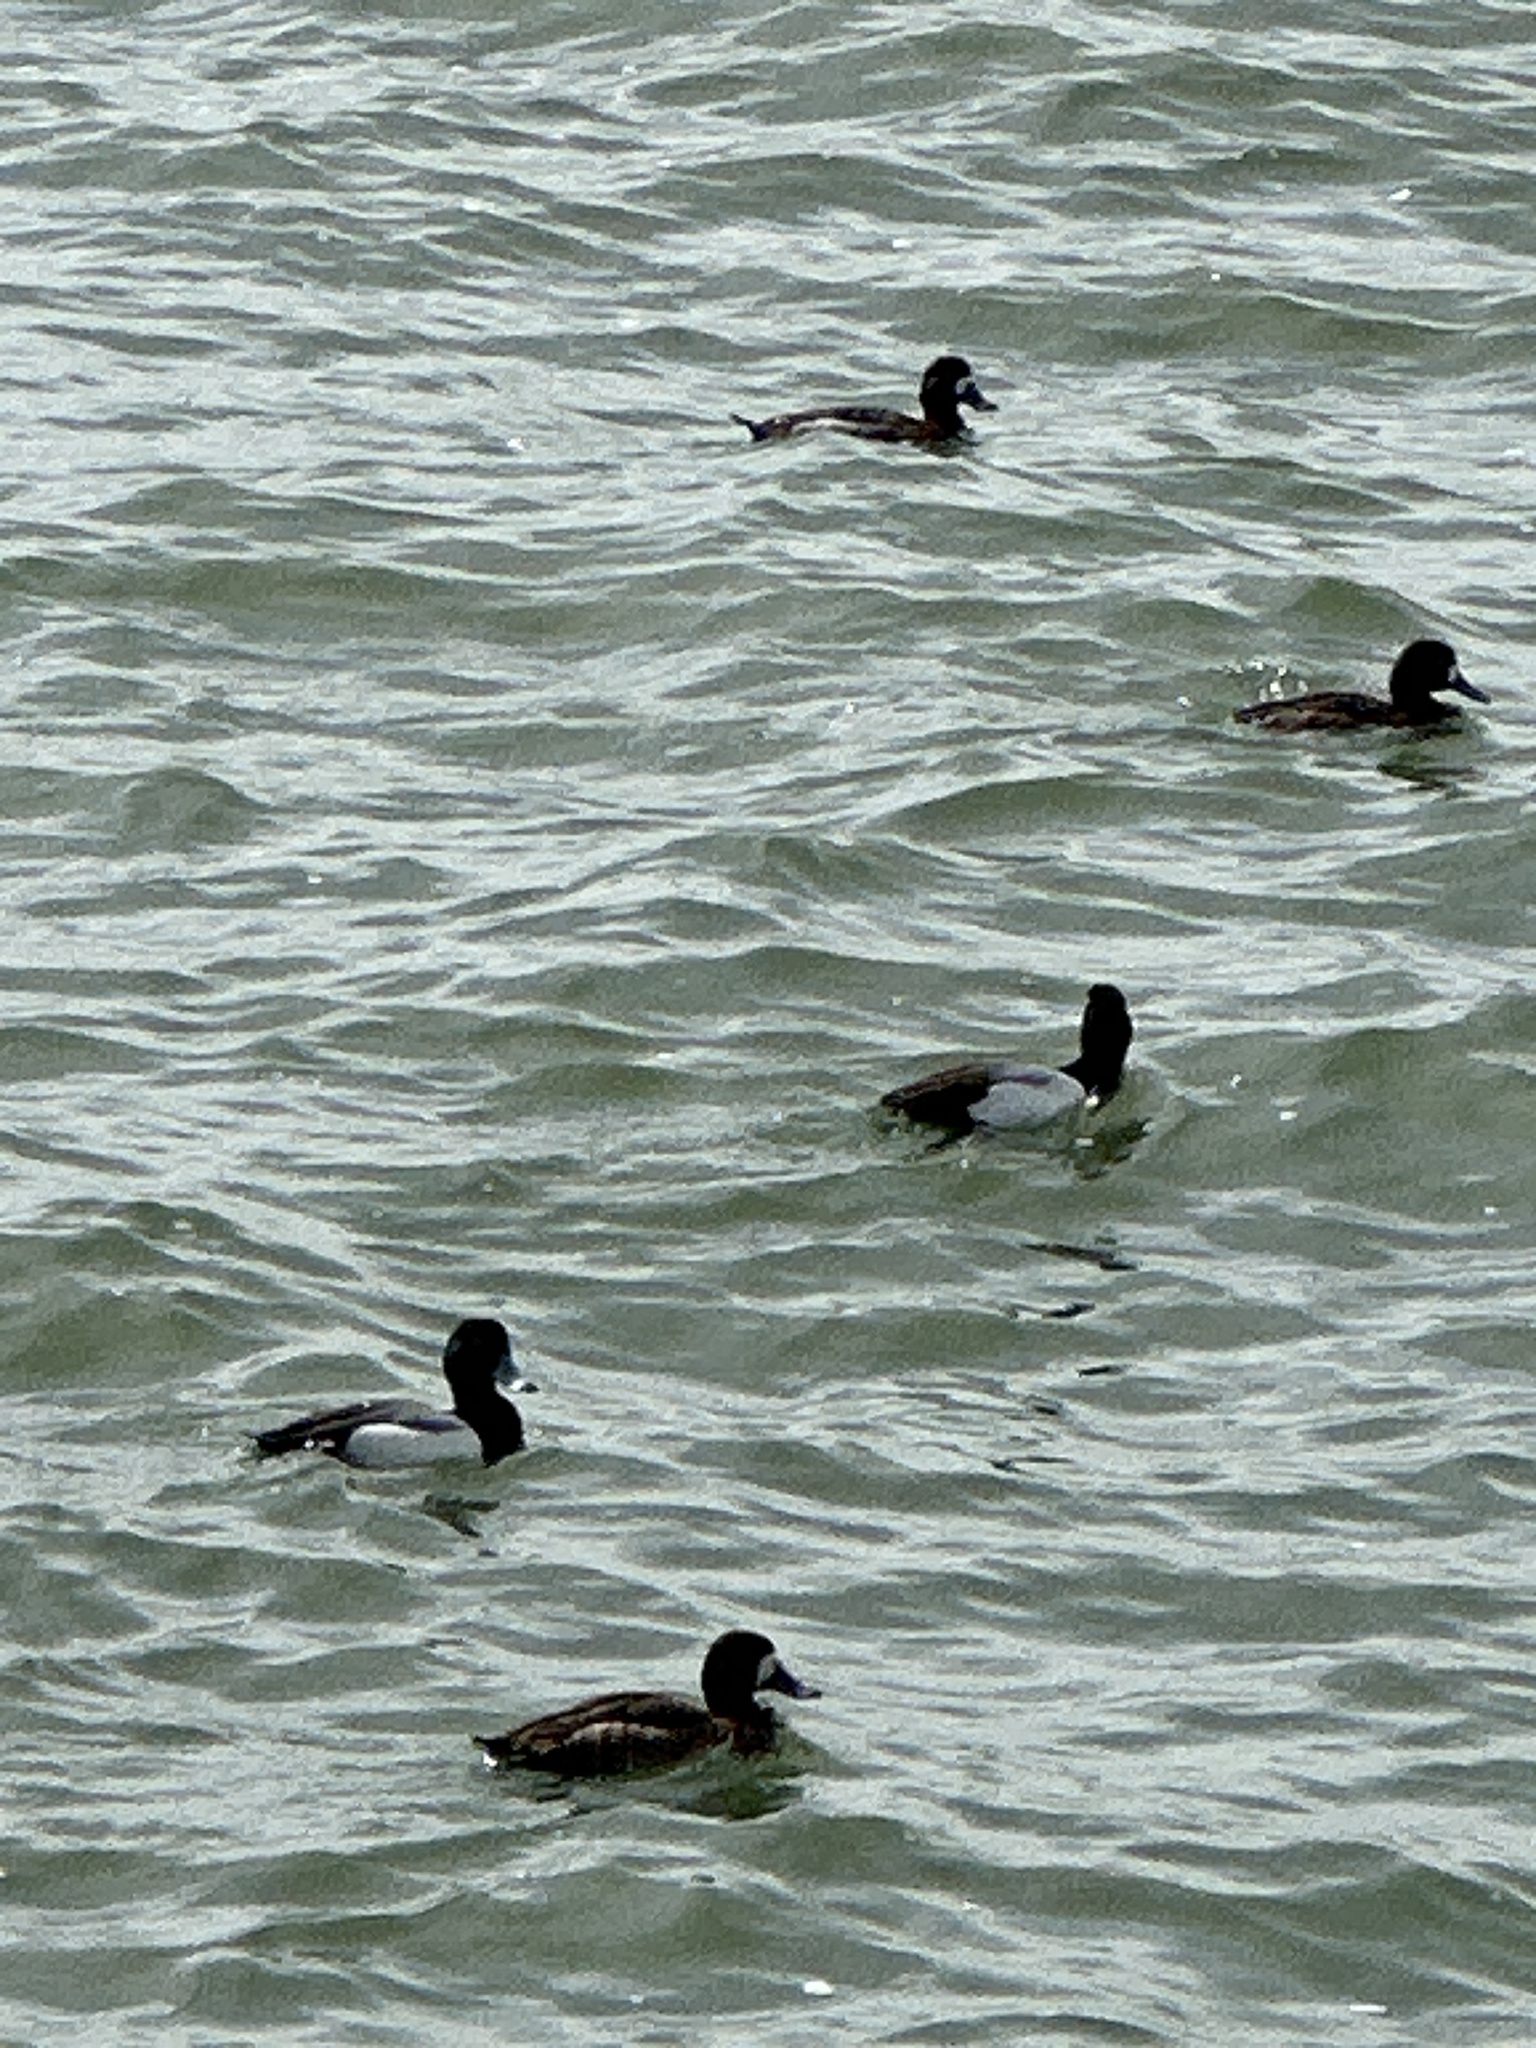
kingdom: Animalia
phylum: Chordata
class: Aves
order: Anseriformes
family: Anatidae
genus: Aythya
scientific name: Aythya collaris
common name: Ring-necked duck
